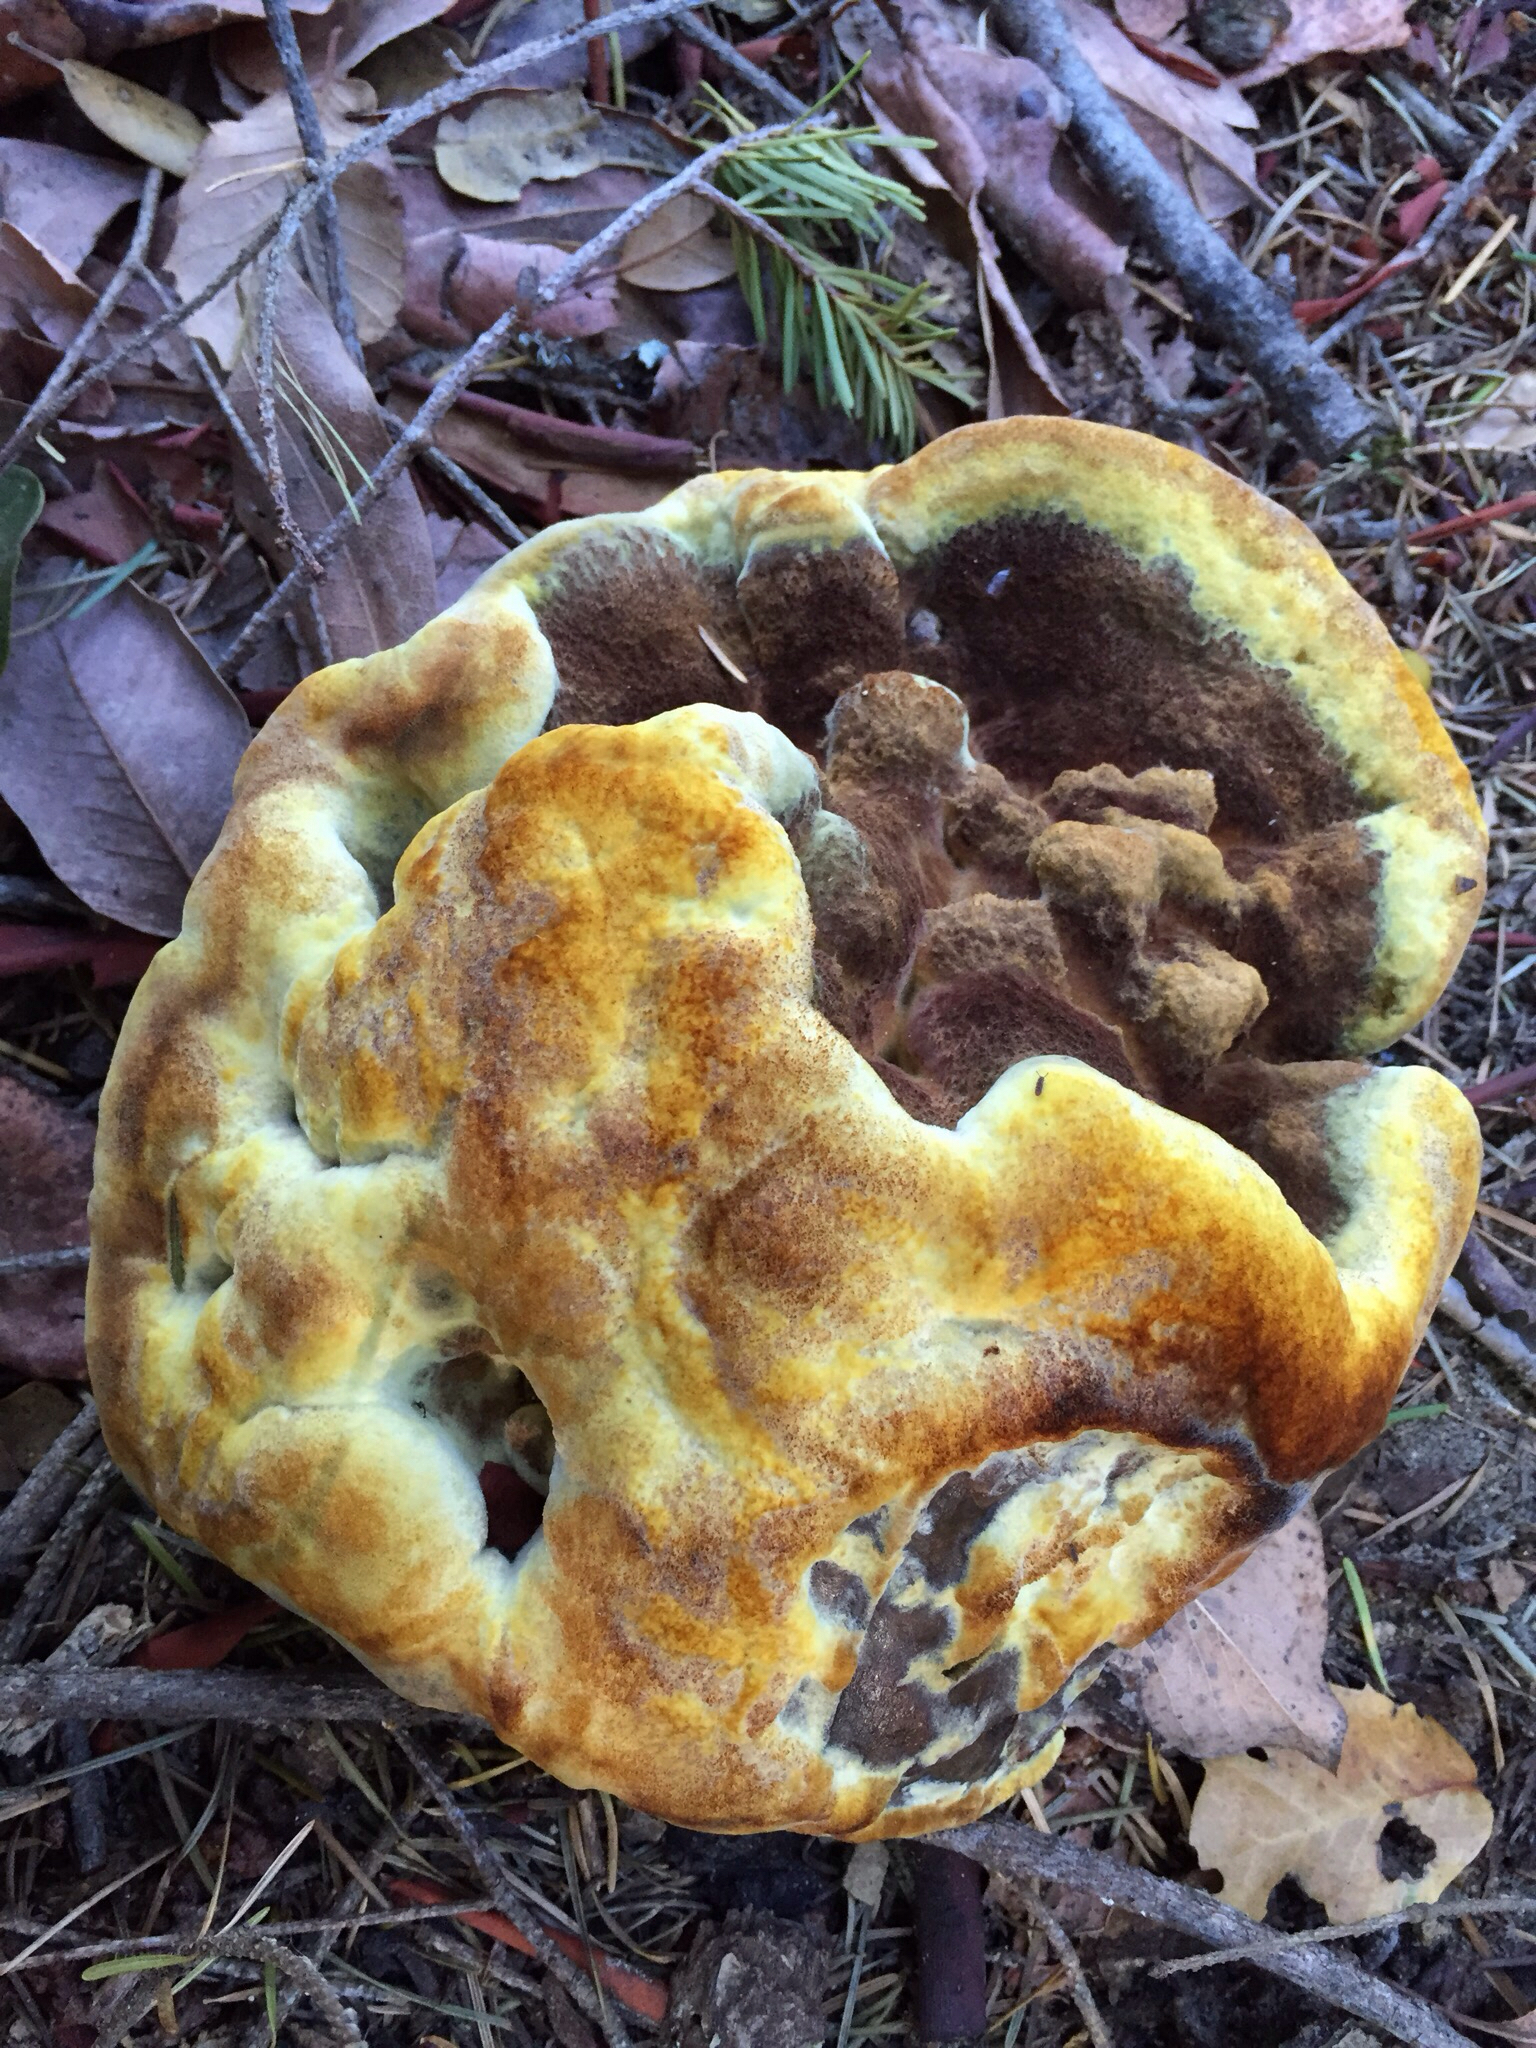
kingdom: Fungi
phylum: Basidiomycota
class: Agaricomycetes
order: Polyporales
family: Laetiporaceae
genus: Phaeolus
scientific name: Phaeolus schweinitzii
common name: Dyer's mazegill
